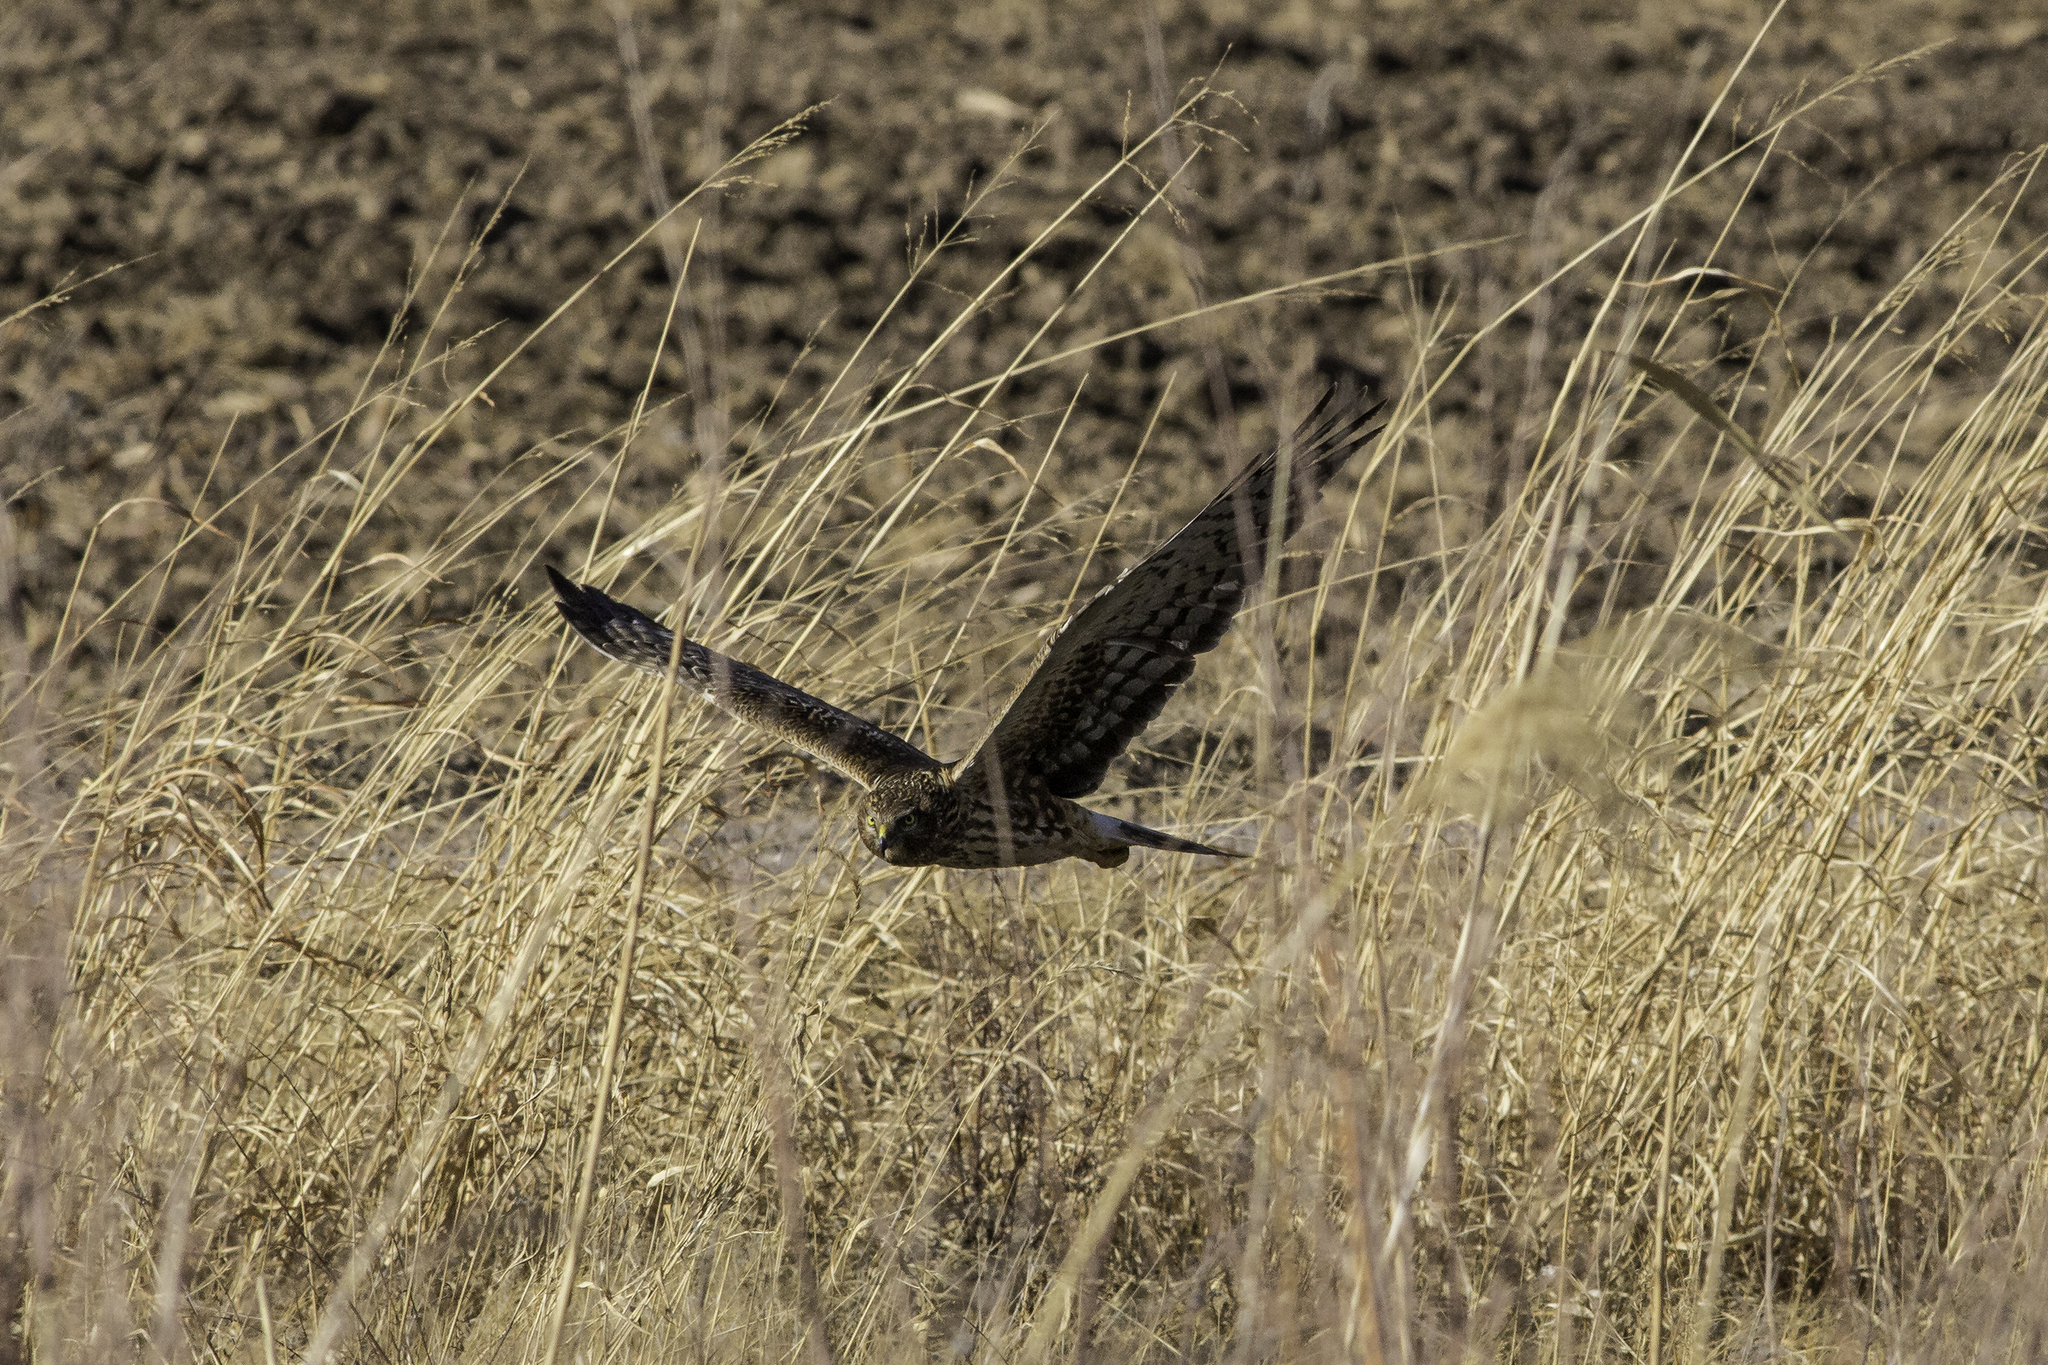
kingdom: Animalia
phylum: Chordata
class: Aves
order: Accipitriformes
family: Accipitridae
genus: Circus
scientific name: Circus cyaneus
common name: Hen harrier
